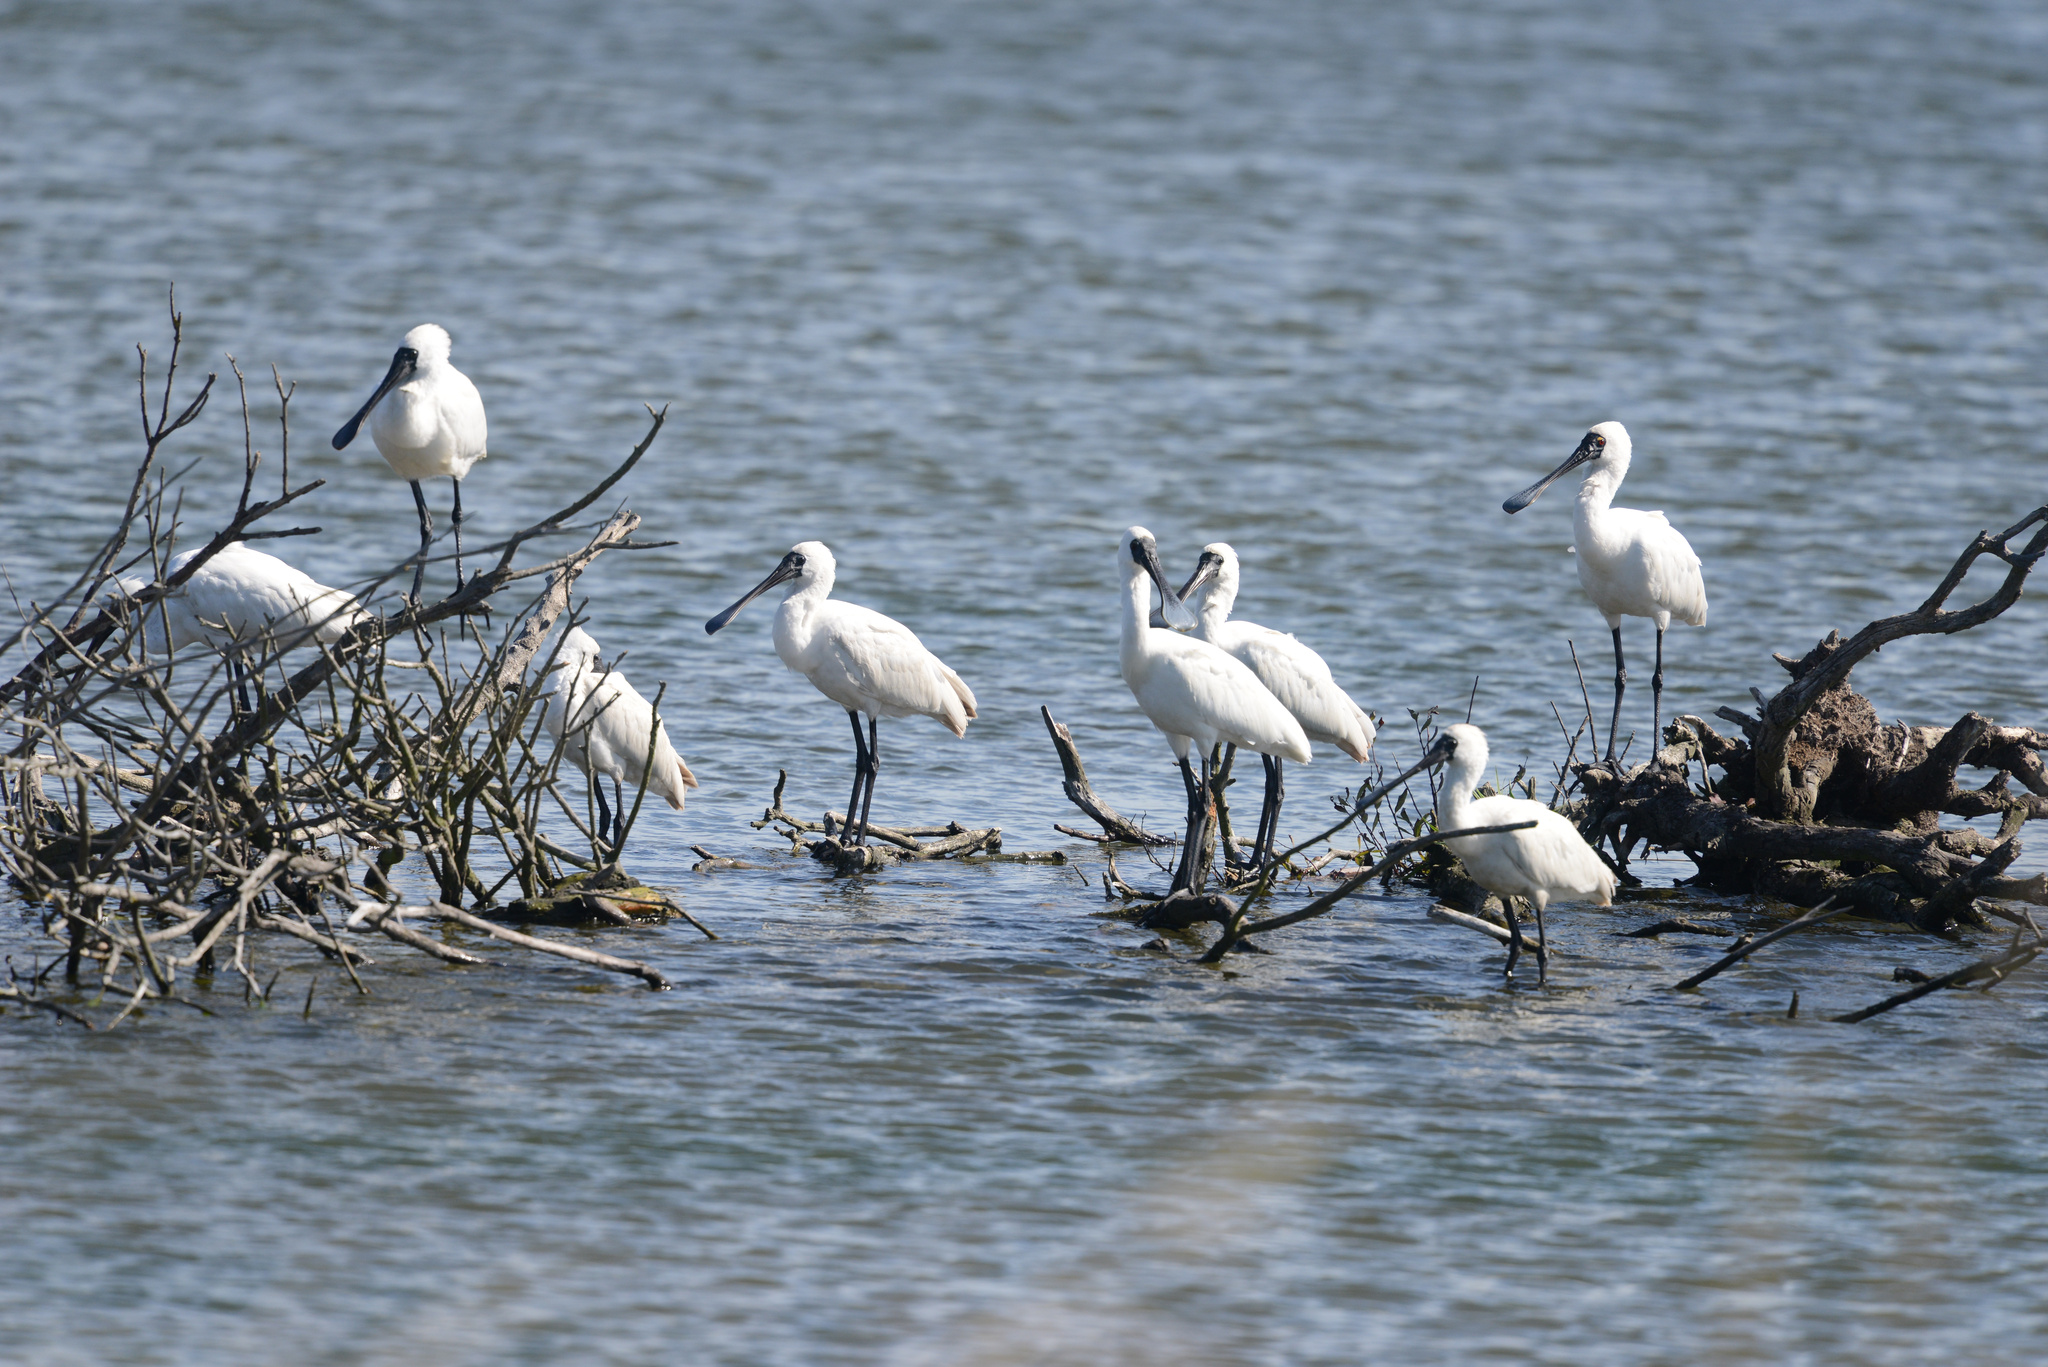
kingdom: Animalia
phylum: Chordata
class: Aves
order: Pelecaniformes
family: Threskiornithidae
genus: Platalea
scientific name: Platalea regia
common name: Royal spoonbill
